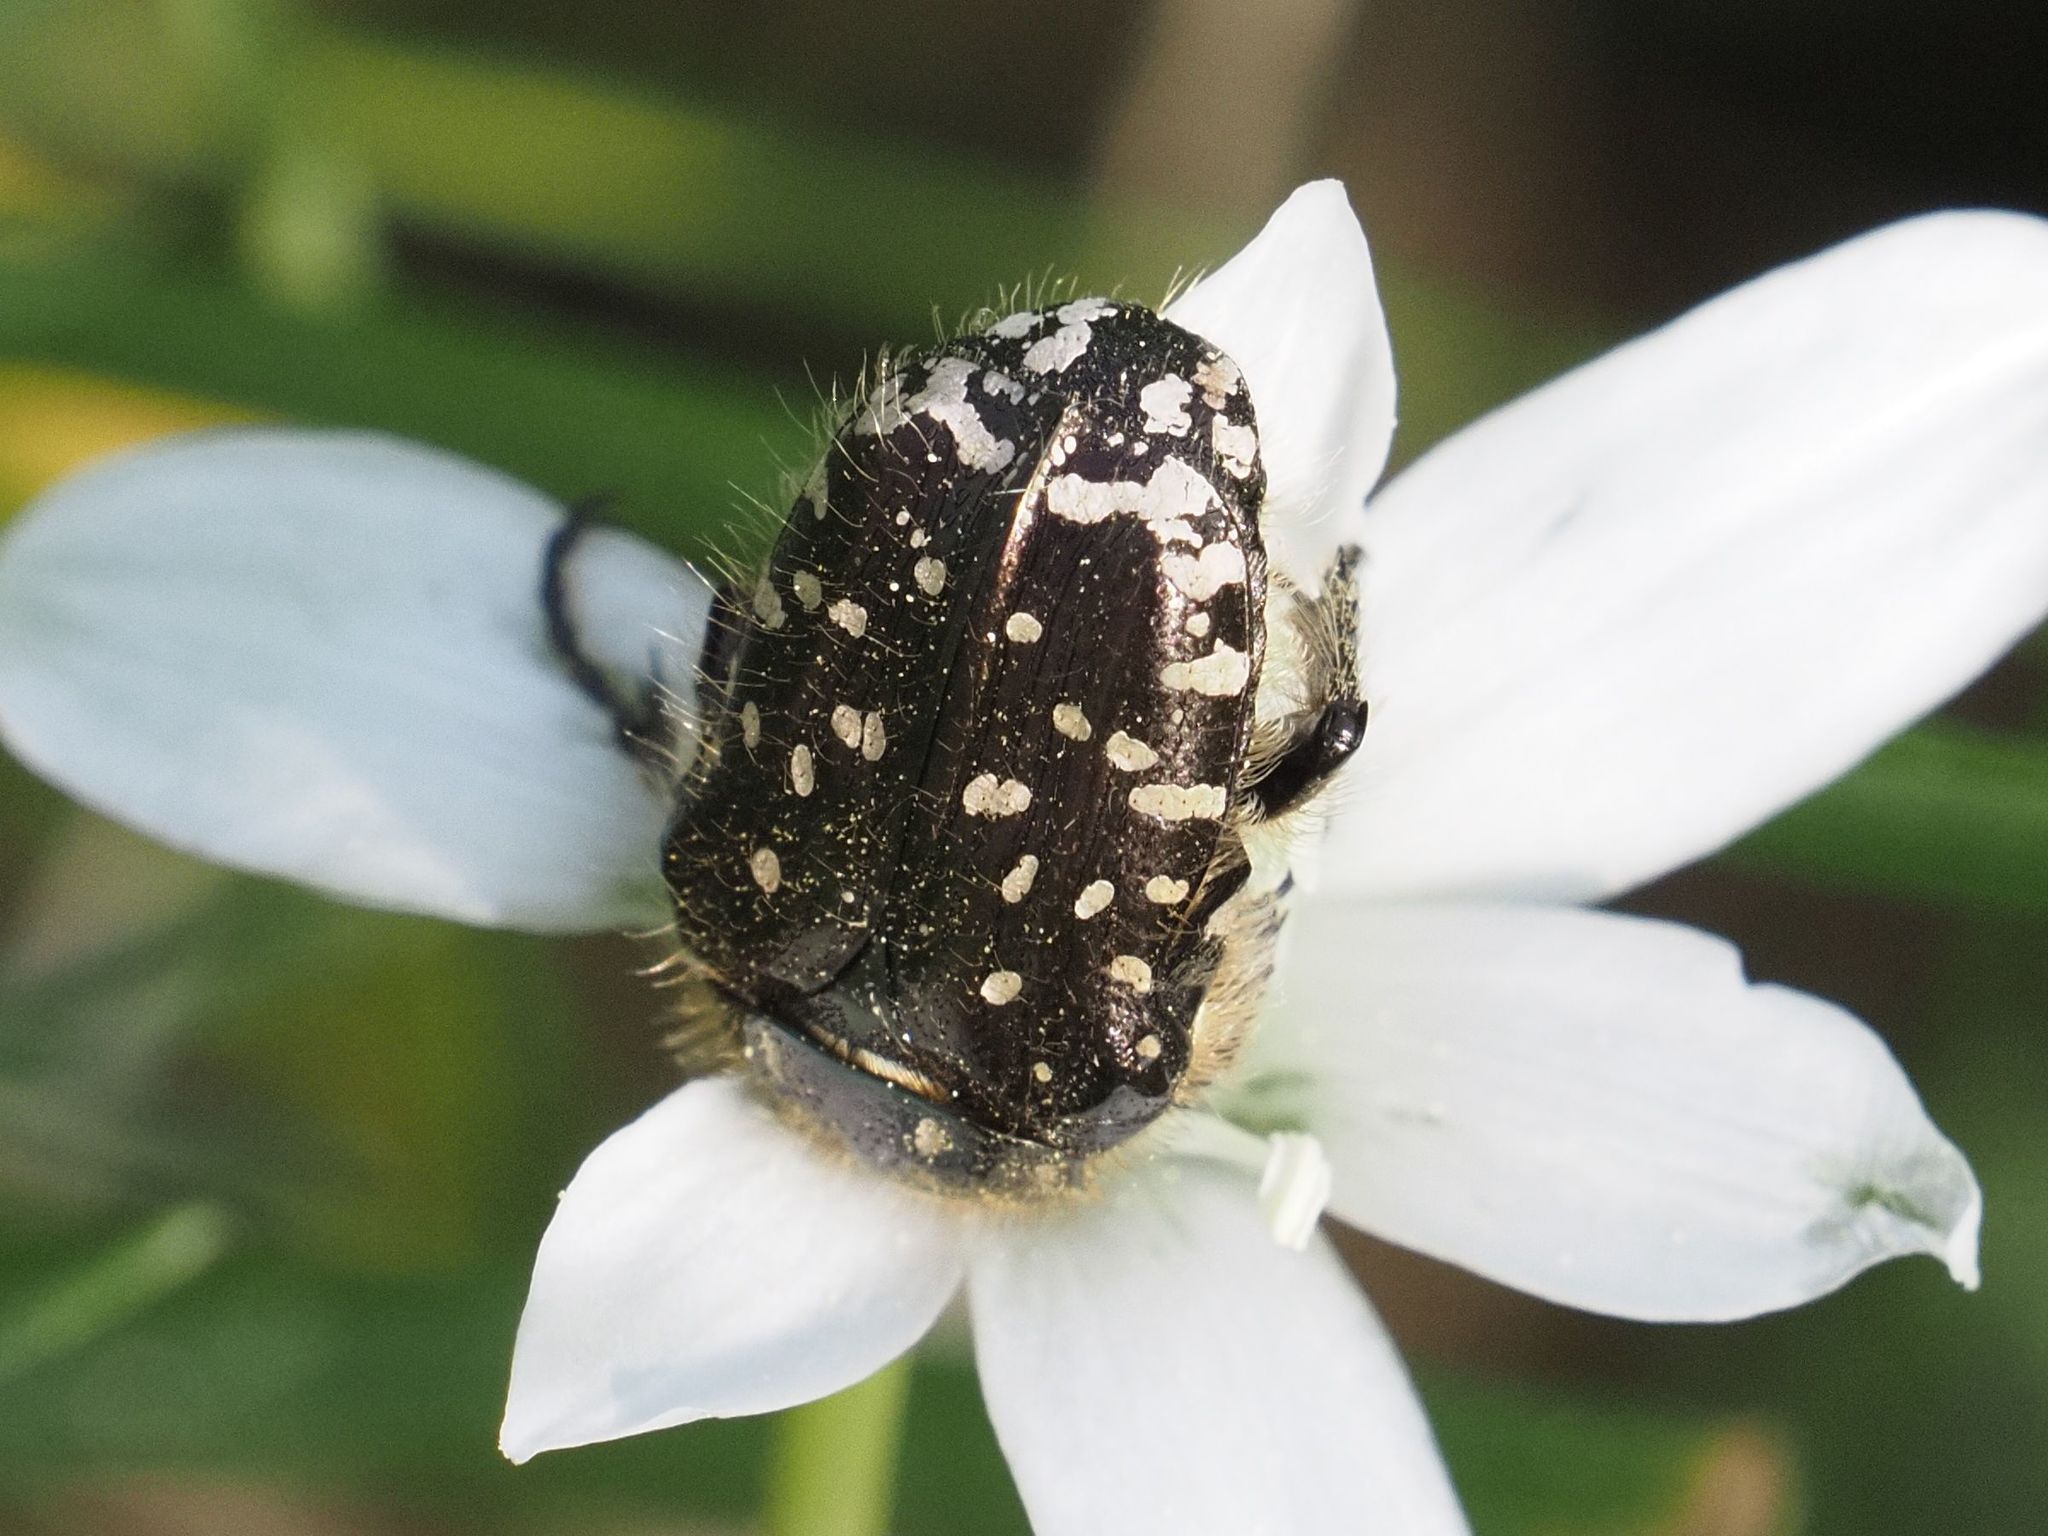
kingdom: Animalia
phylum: Arthropoda
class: Insecta
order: Coleoptera
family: Scarabaeidae
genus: Oxythyrea
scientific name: Oxythyrea funesta
